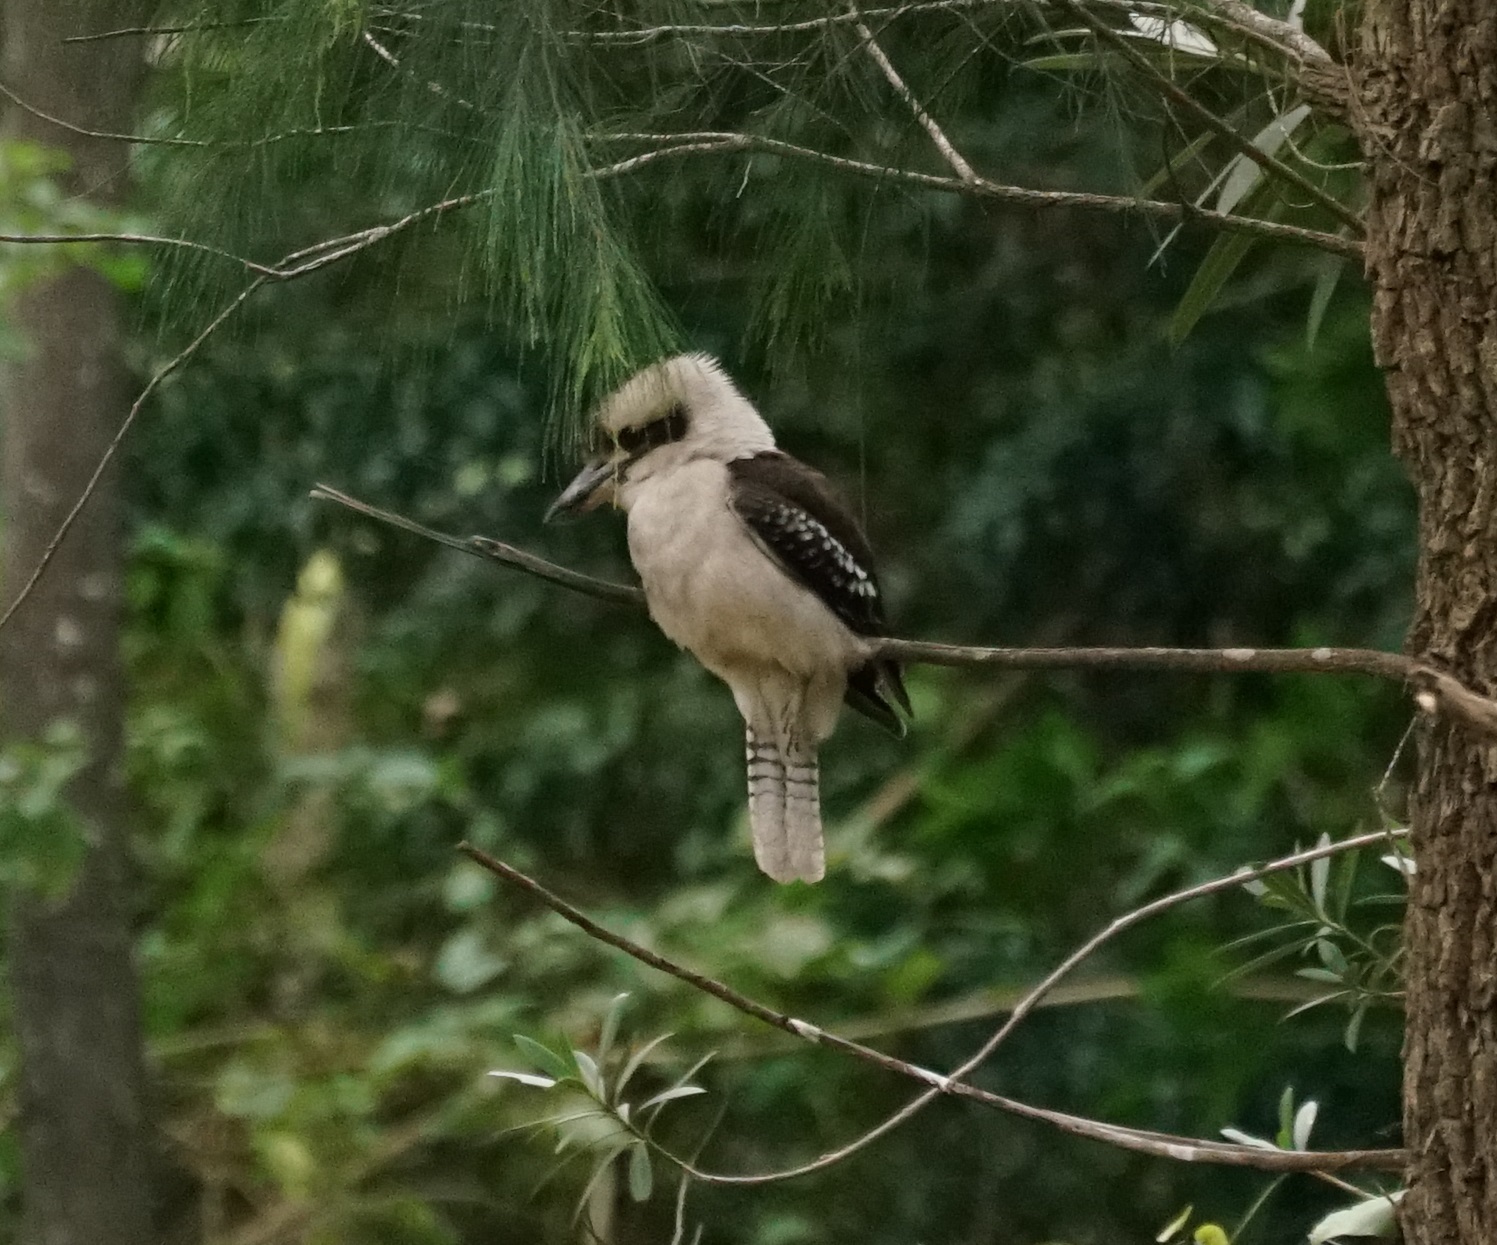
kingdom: Animalia
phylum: Chordata
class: Aves
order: Coraciiformes
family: Alcedinidae
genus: Dacelo
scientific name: Dacelo novaeguineae
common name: Laughing kookaburra
